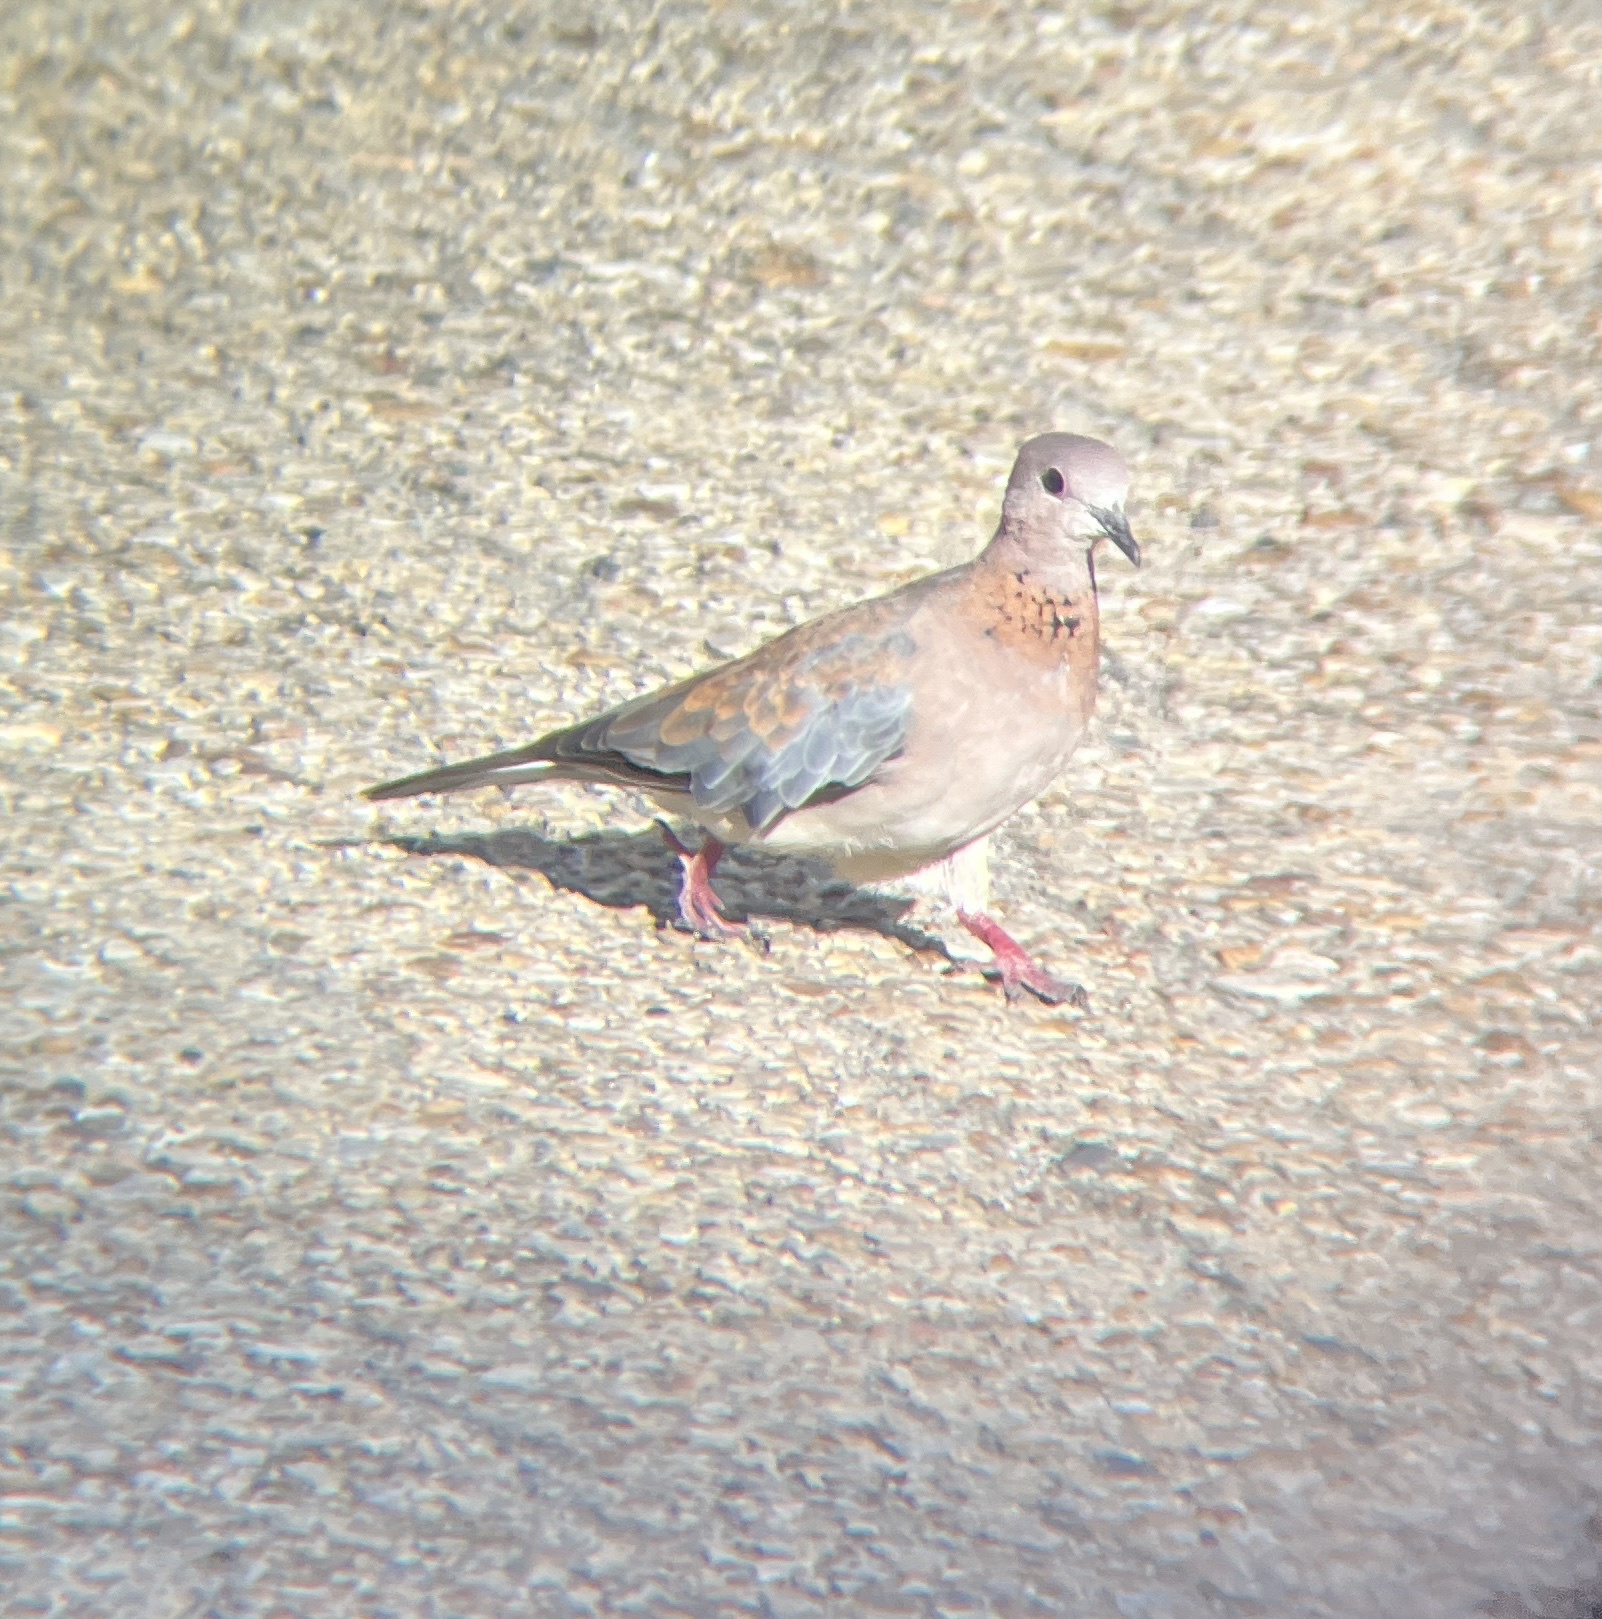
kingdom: Animalia
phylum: Chordata
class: Aves
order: Columbiformes
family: Columbidae
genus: Spilopelia
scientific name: Spilopelia senegalensis
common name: Laughing dove
